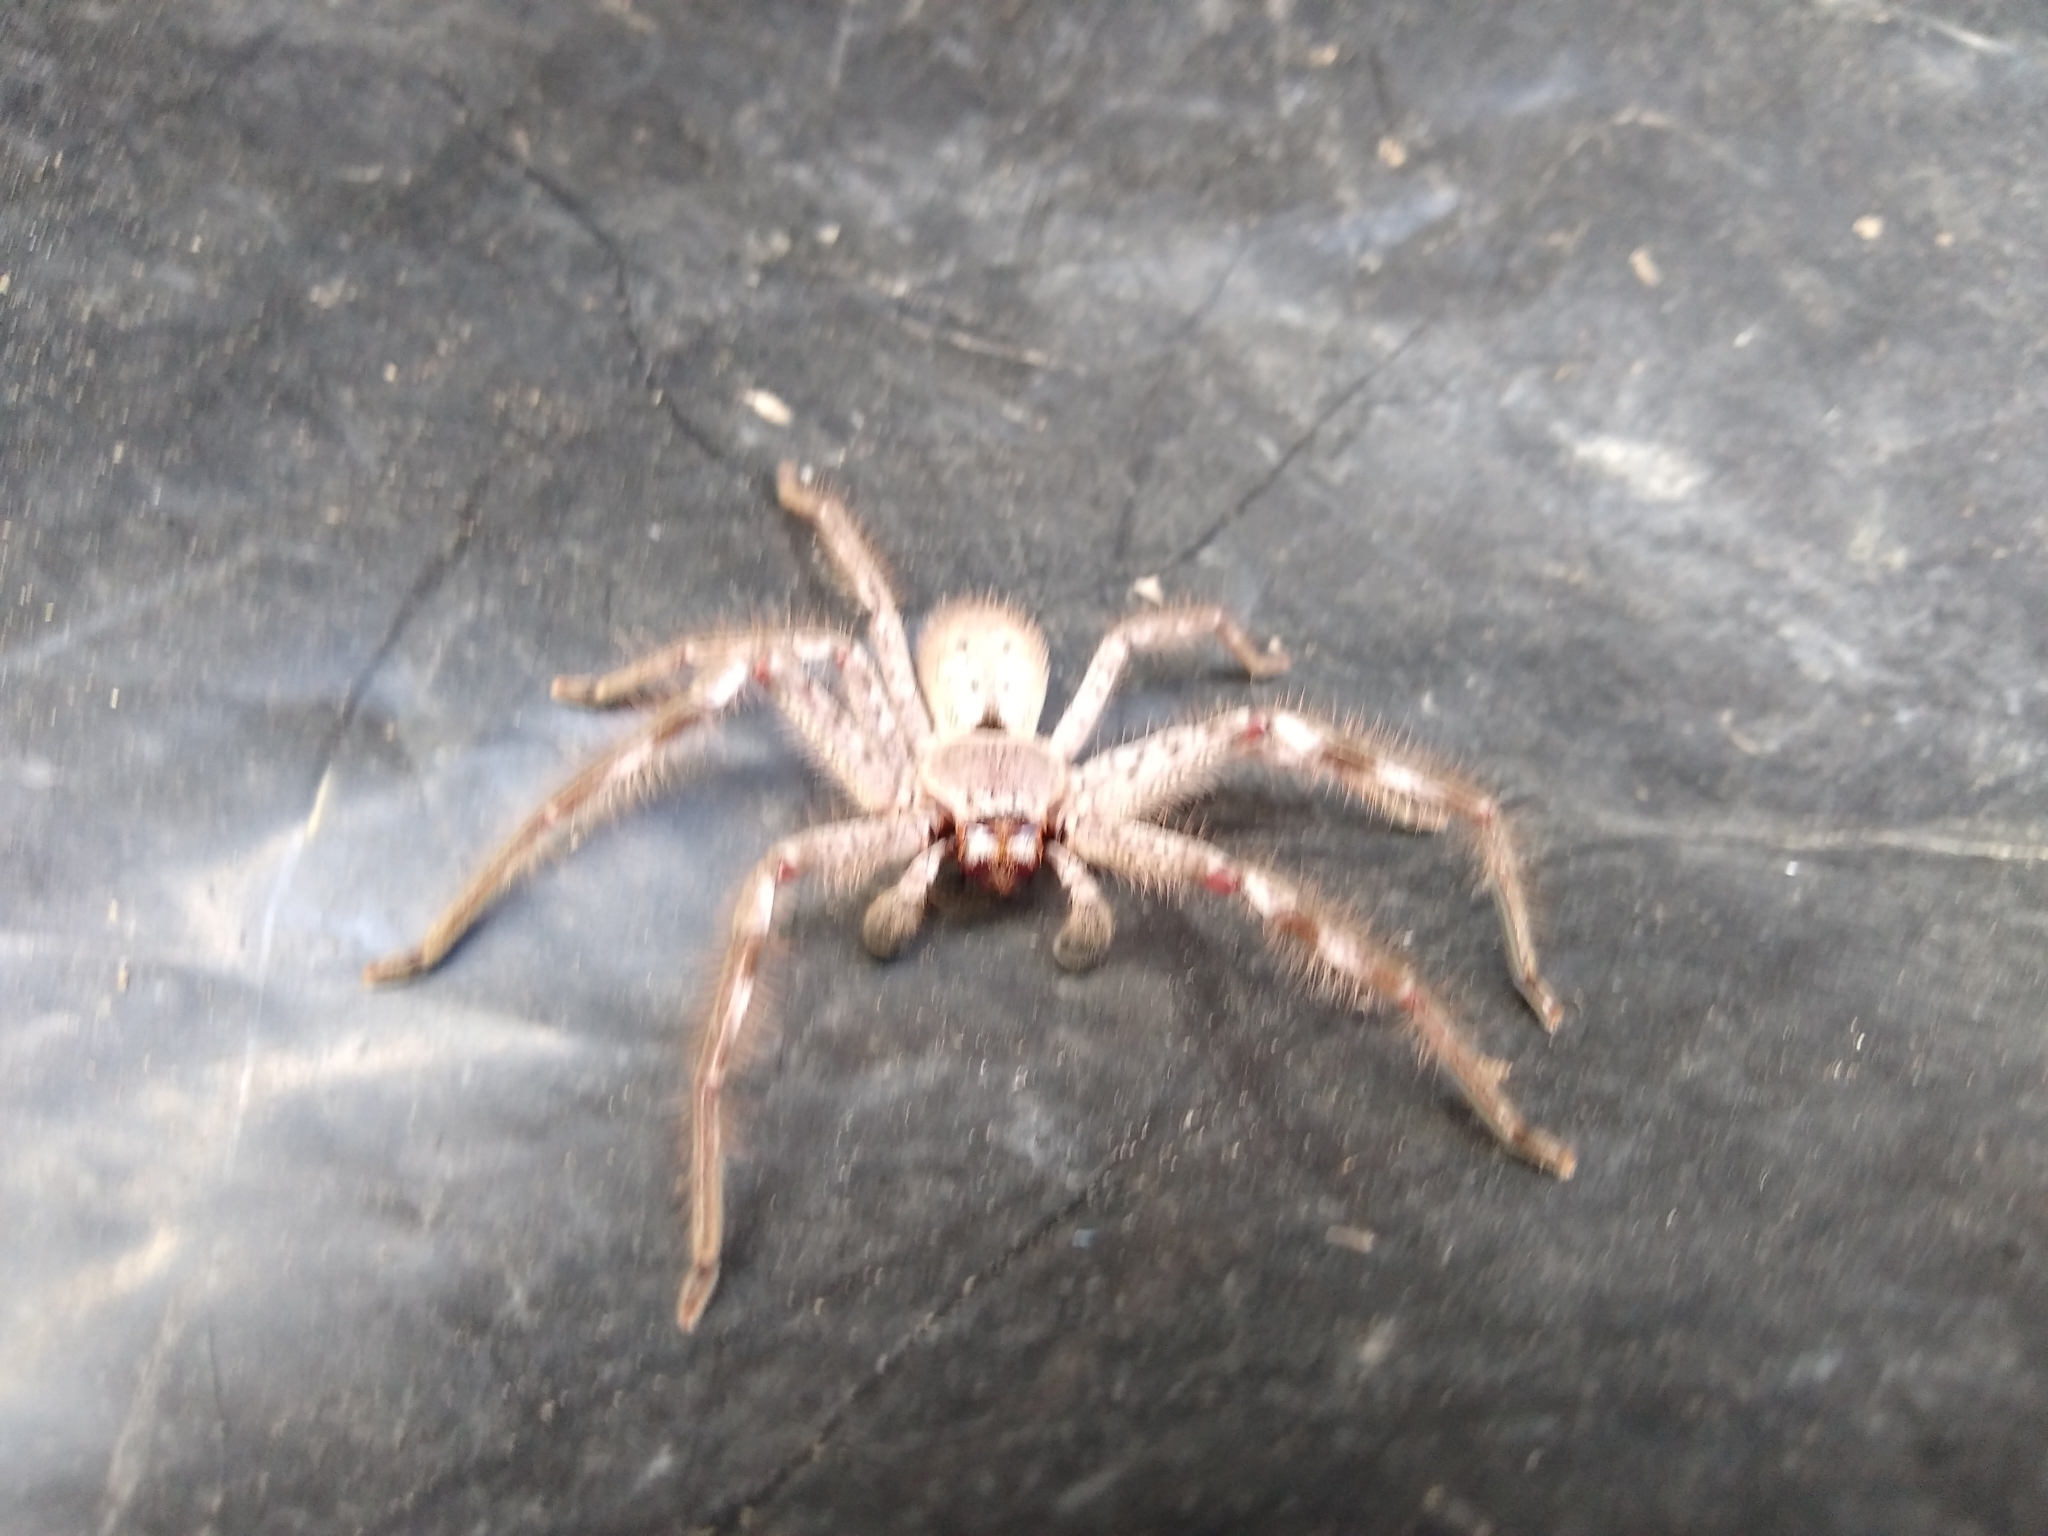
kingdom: Animalia
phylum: Arthropoda
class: Arachnida
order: Araneae
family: Sparassidae
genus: Isopeda
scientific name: Isopeda montana
